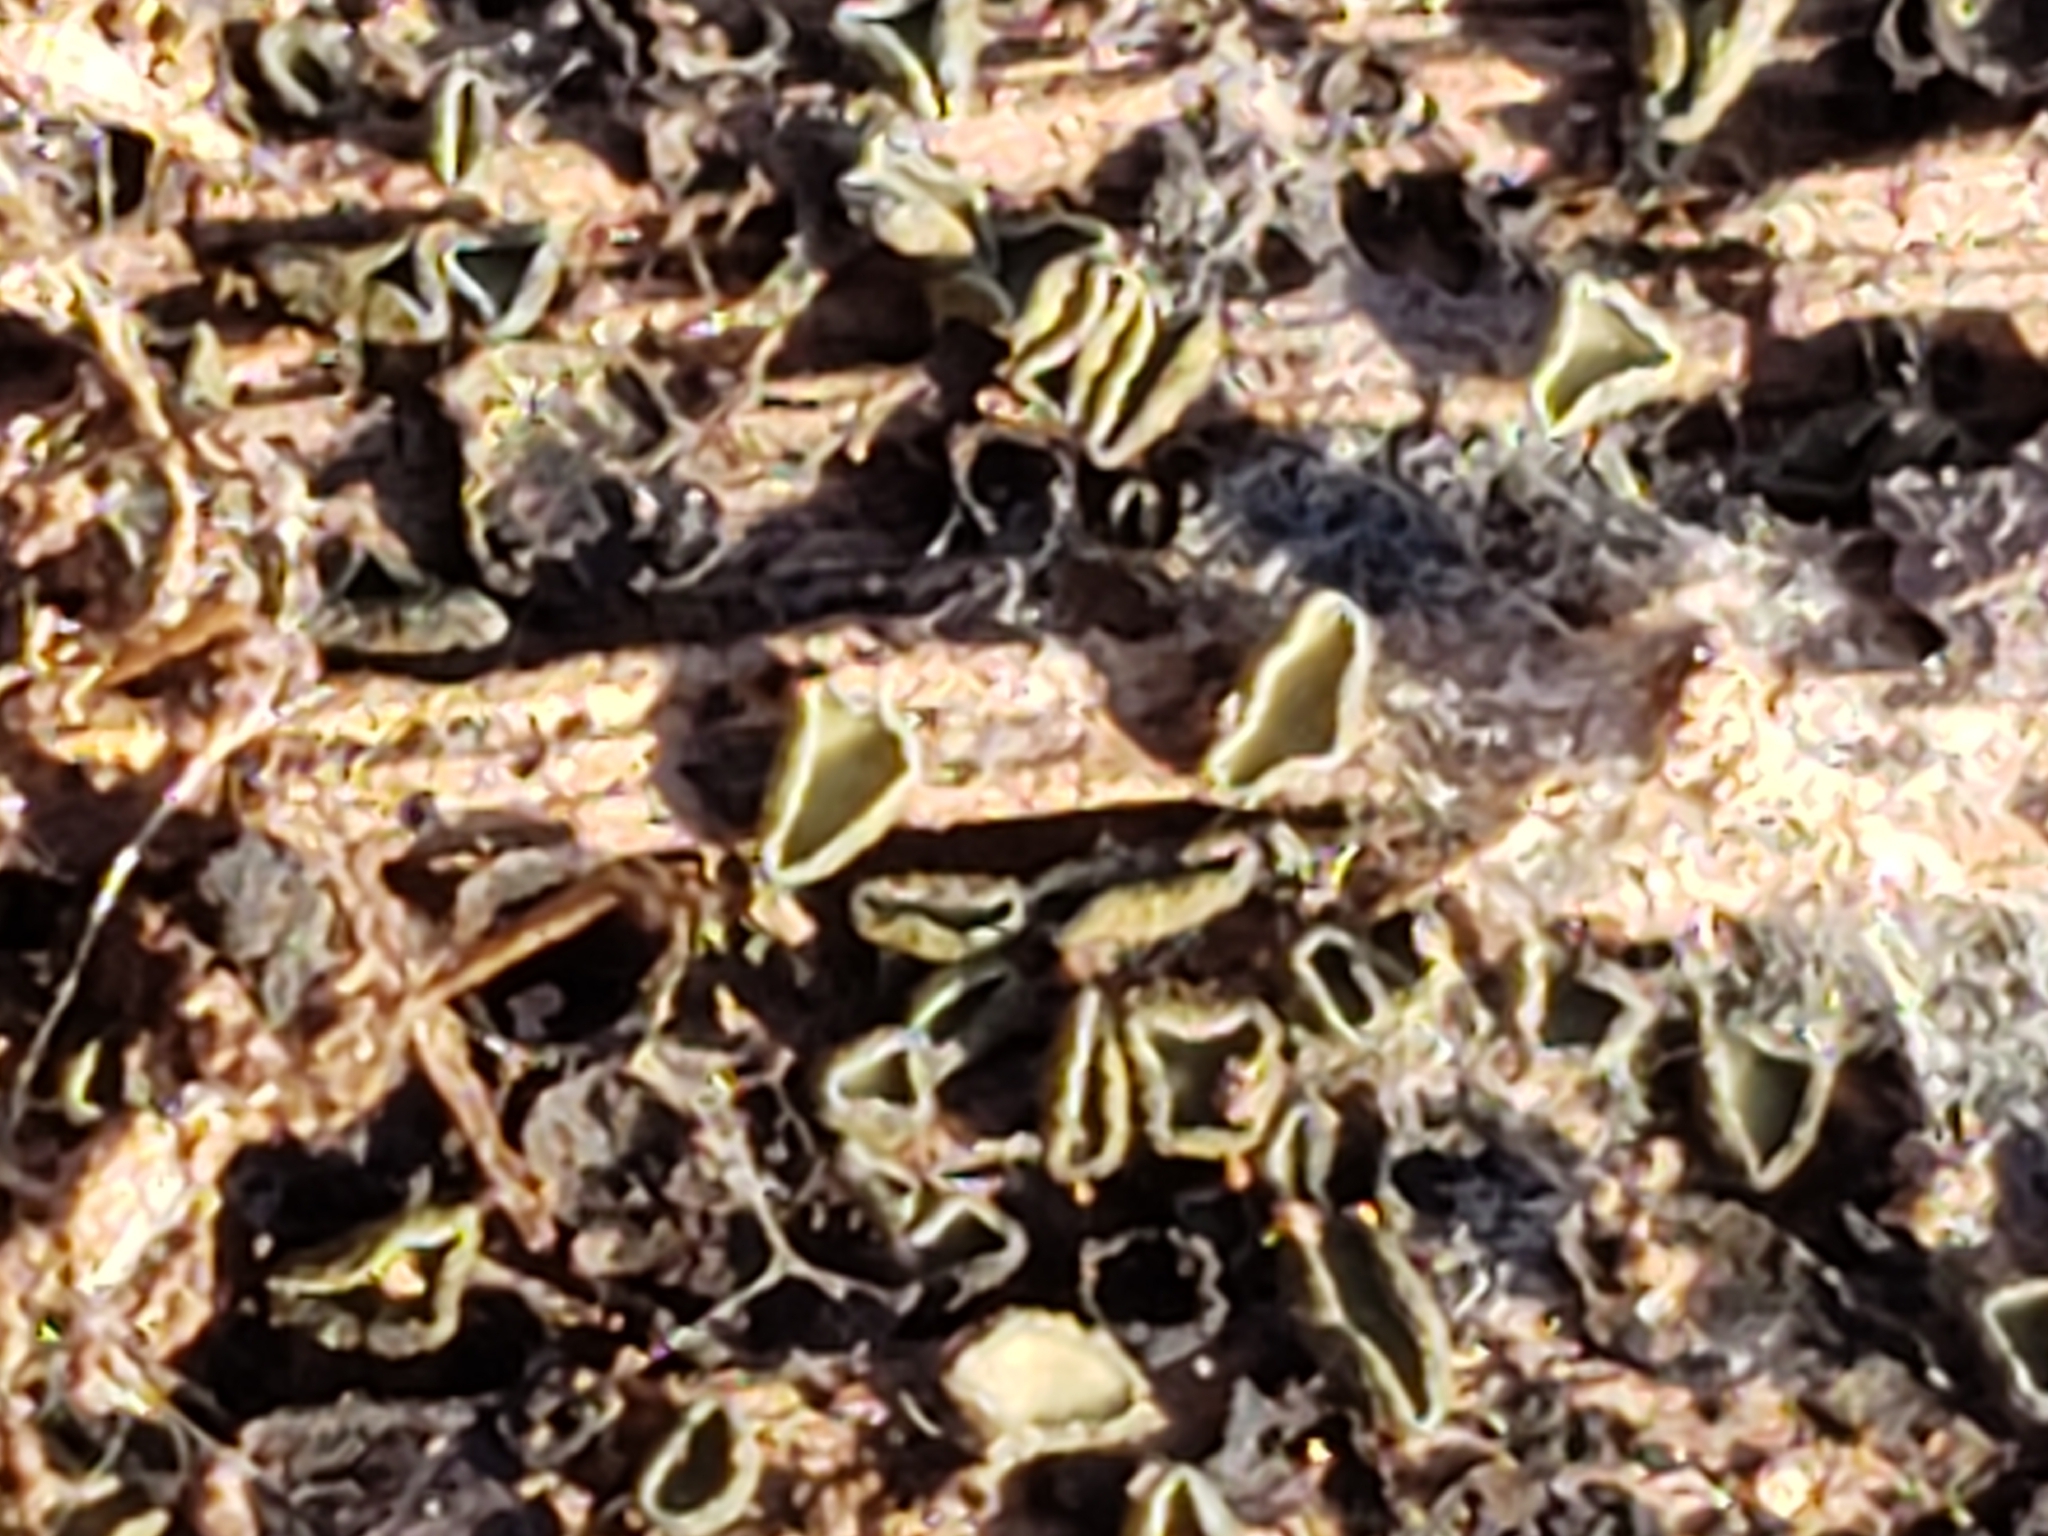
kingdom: Fungi
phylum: Ascomycota
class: Leotiomycetes
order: Helotiales
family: Chlorospleniaceae
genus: Chlorosplenium
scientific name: Chlorosplenium chlora
